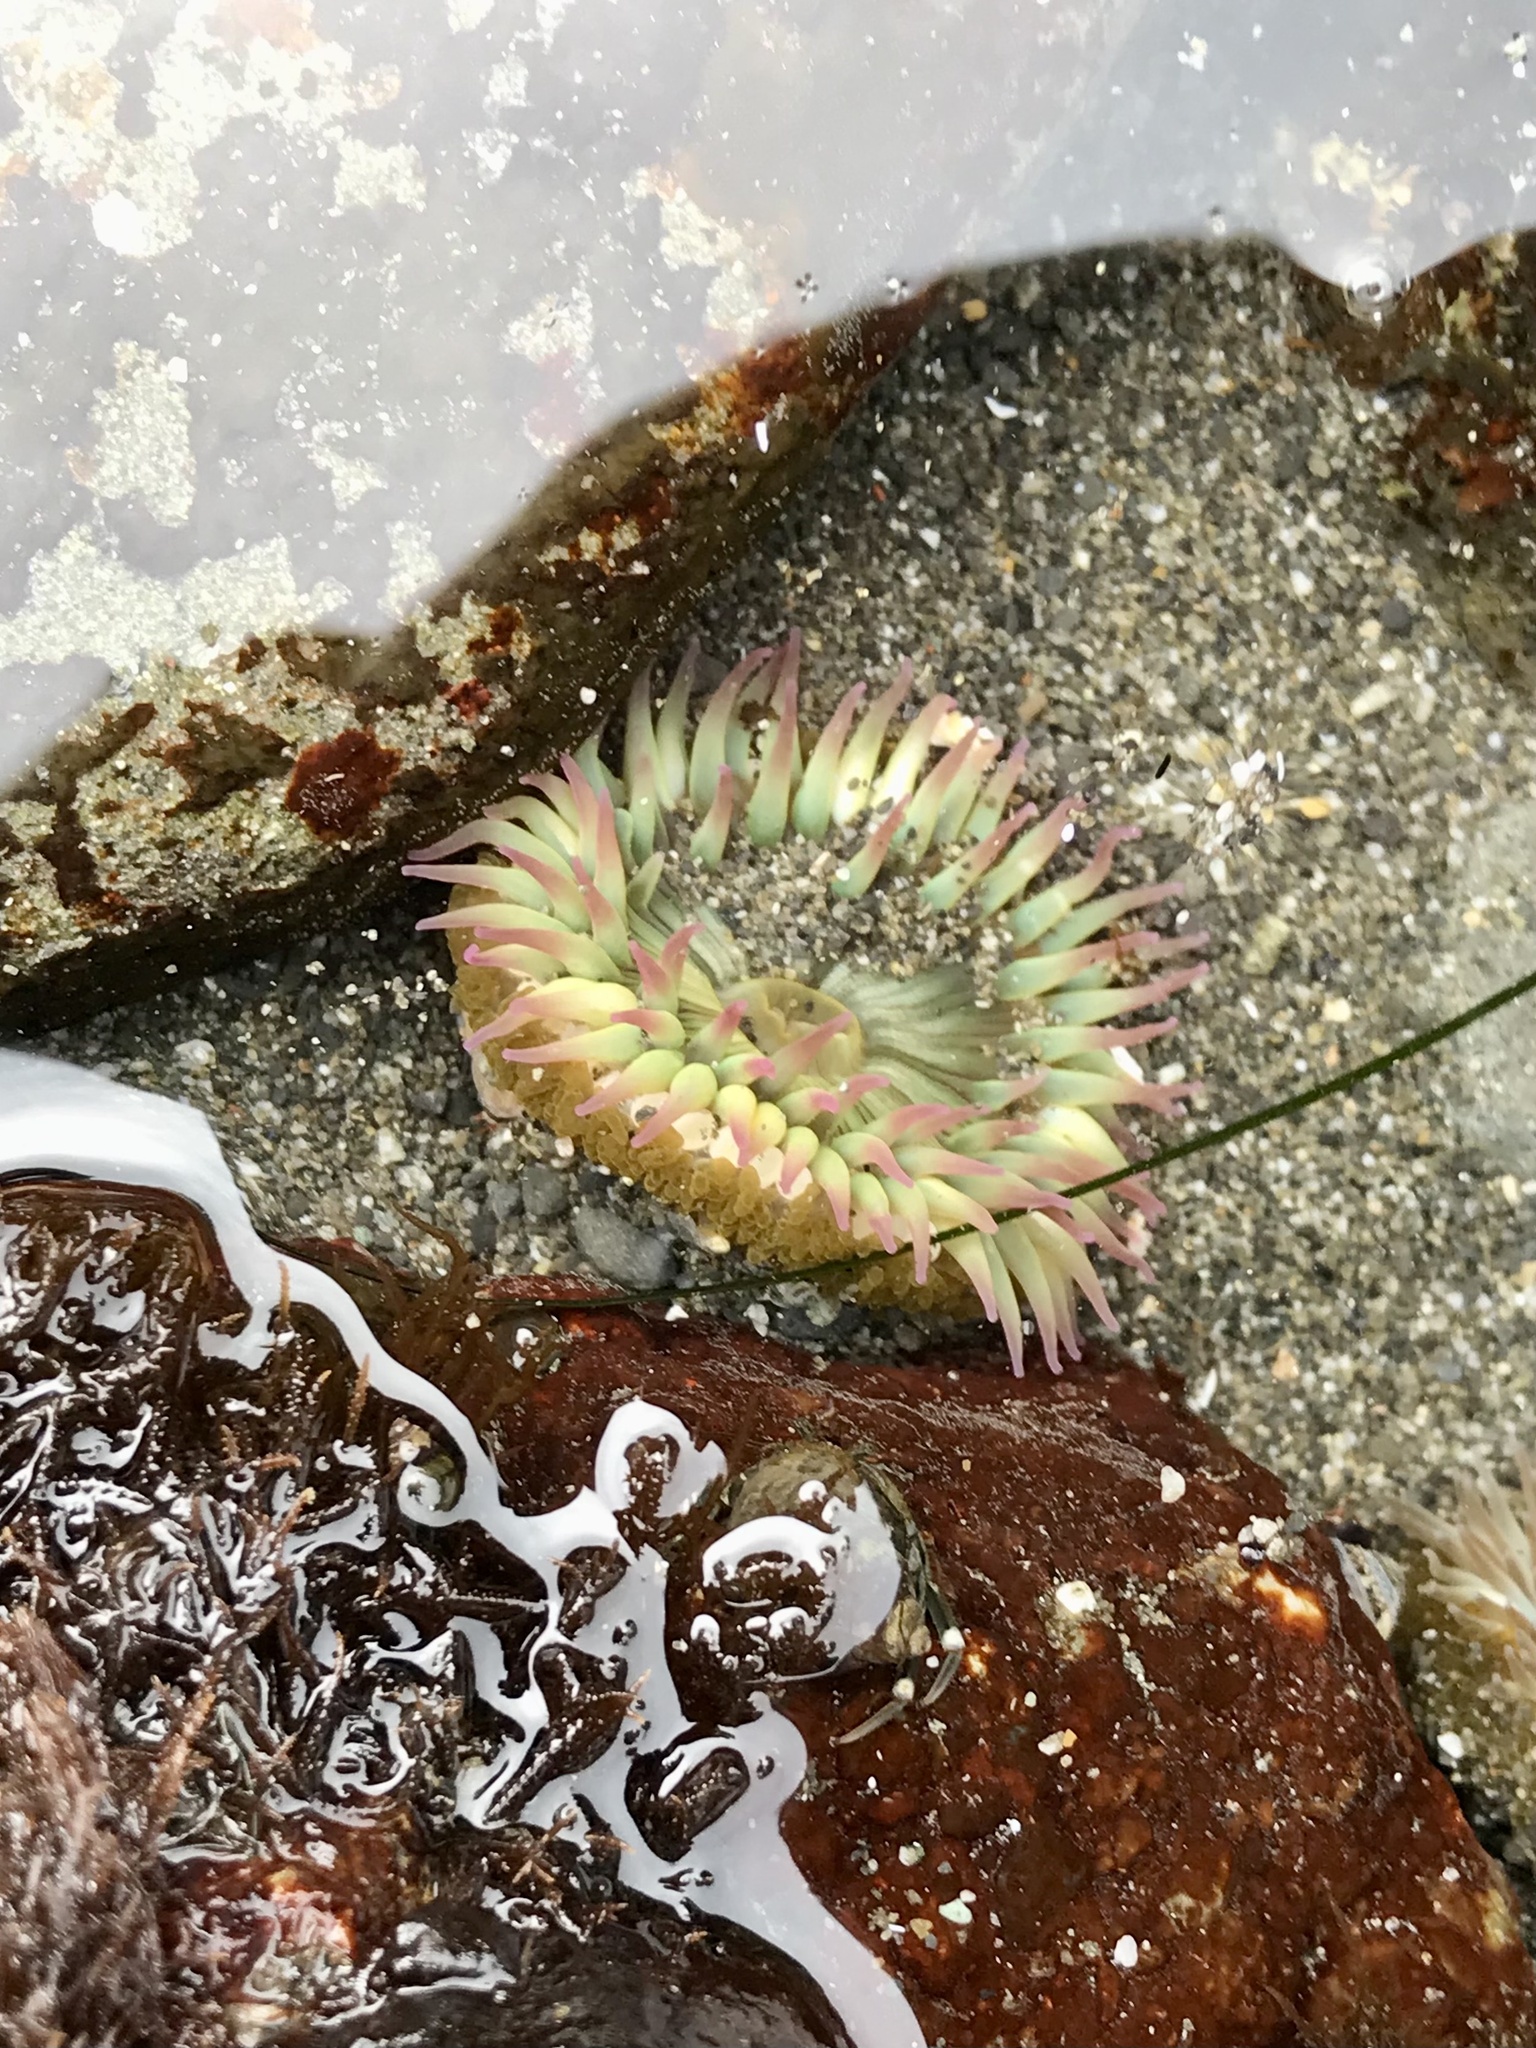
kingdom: Animalia
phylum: Cnidaria
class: Anthozoa
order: Actiniaria
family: Actiniidae
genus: Anthopleura
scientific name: Anthopleura elegantissima
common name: Clonal anemone
